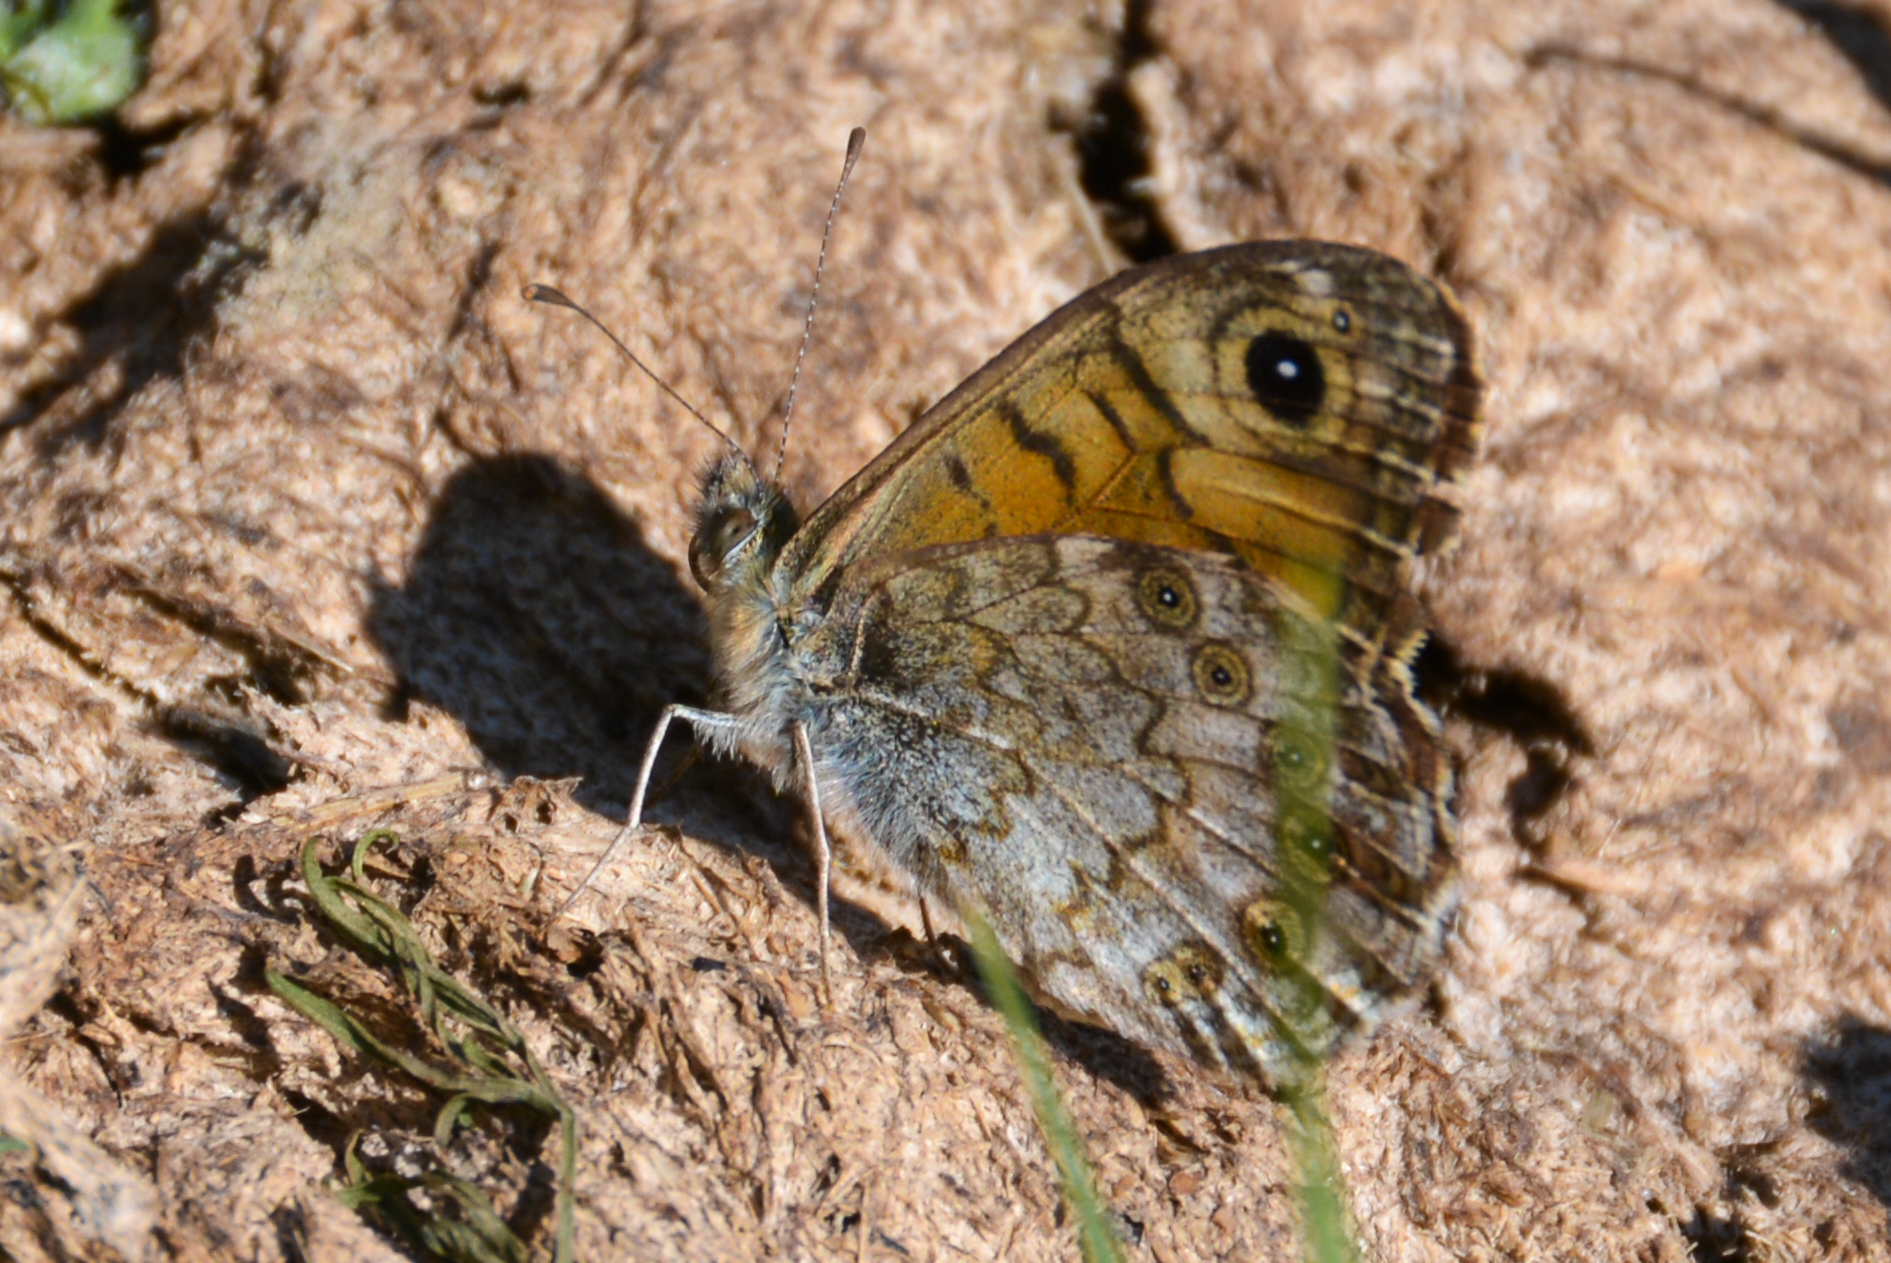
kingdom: Animalia
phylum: Arthropoda
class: Insecta
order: Lepidoptera
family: Nymphalidae
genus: Pararge
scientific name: Pararge Lasiommata megera
